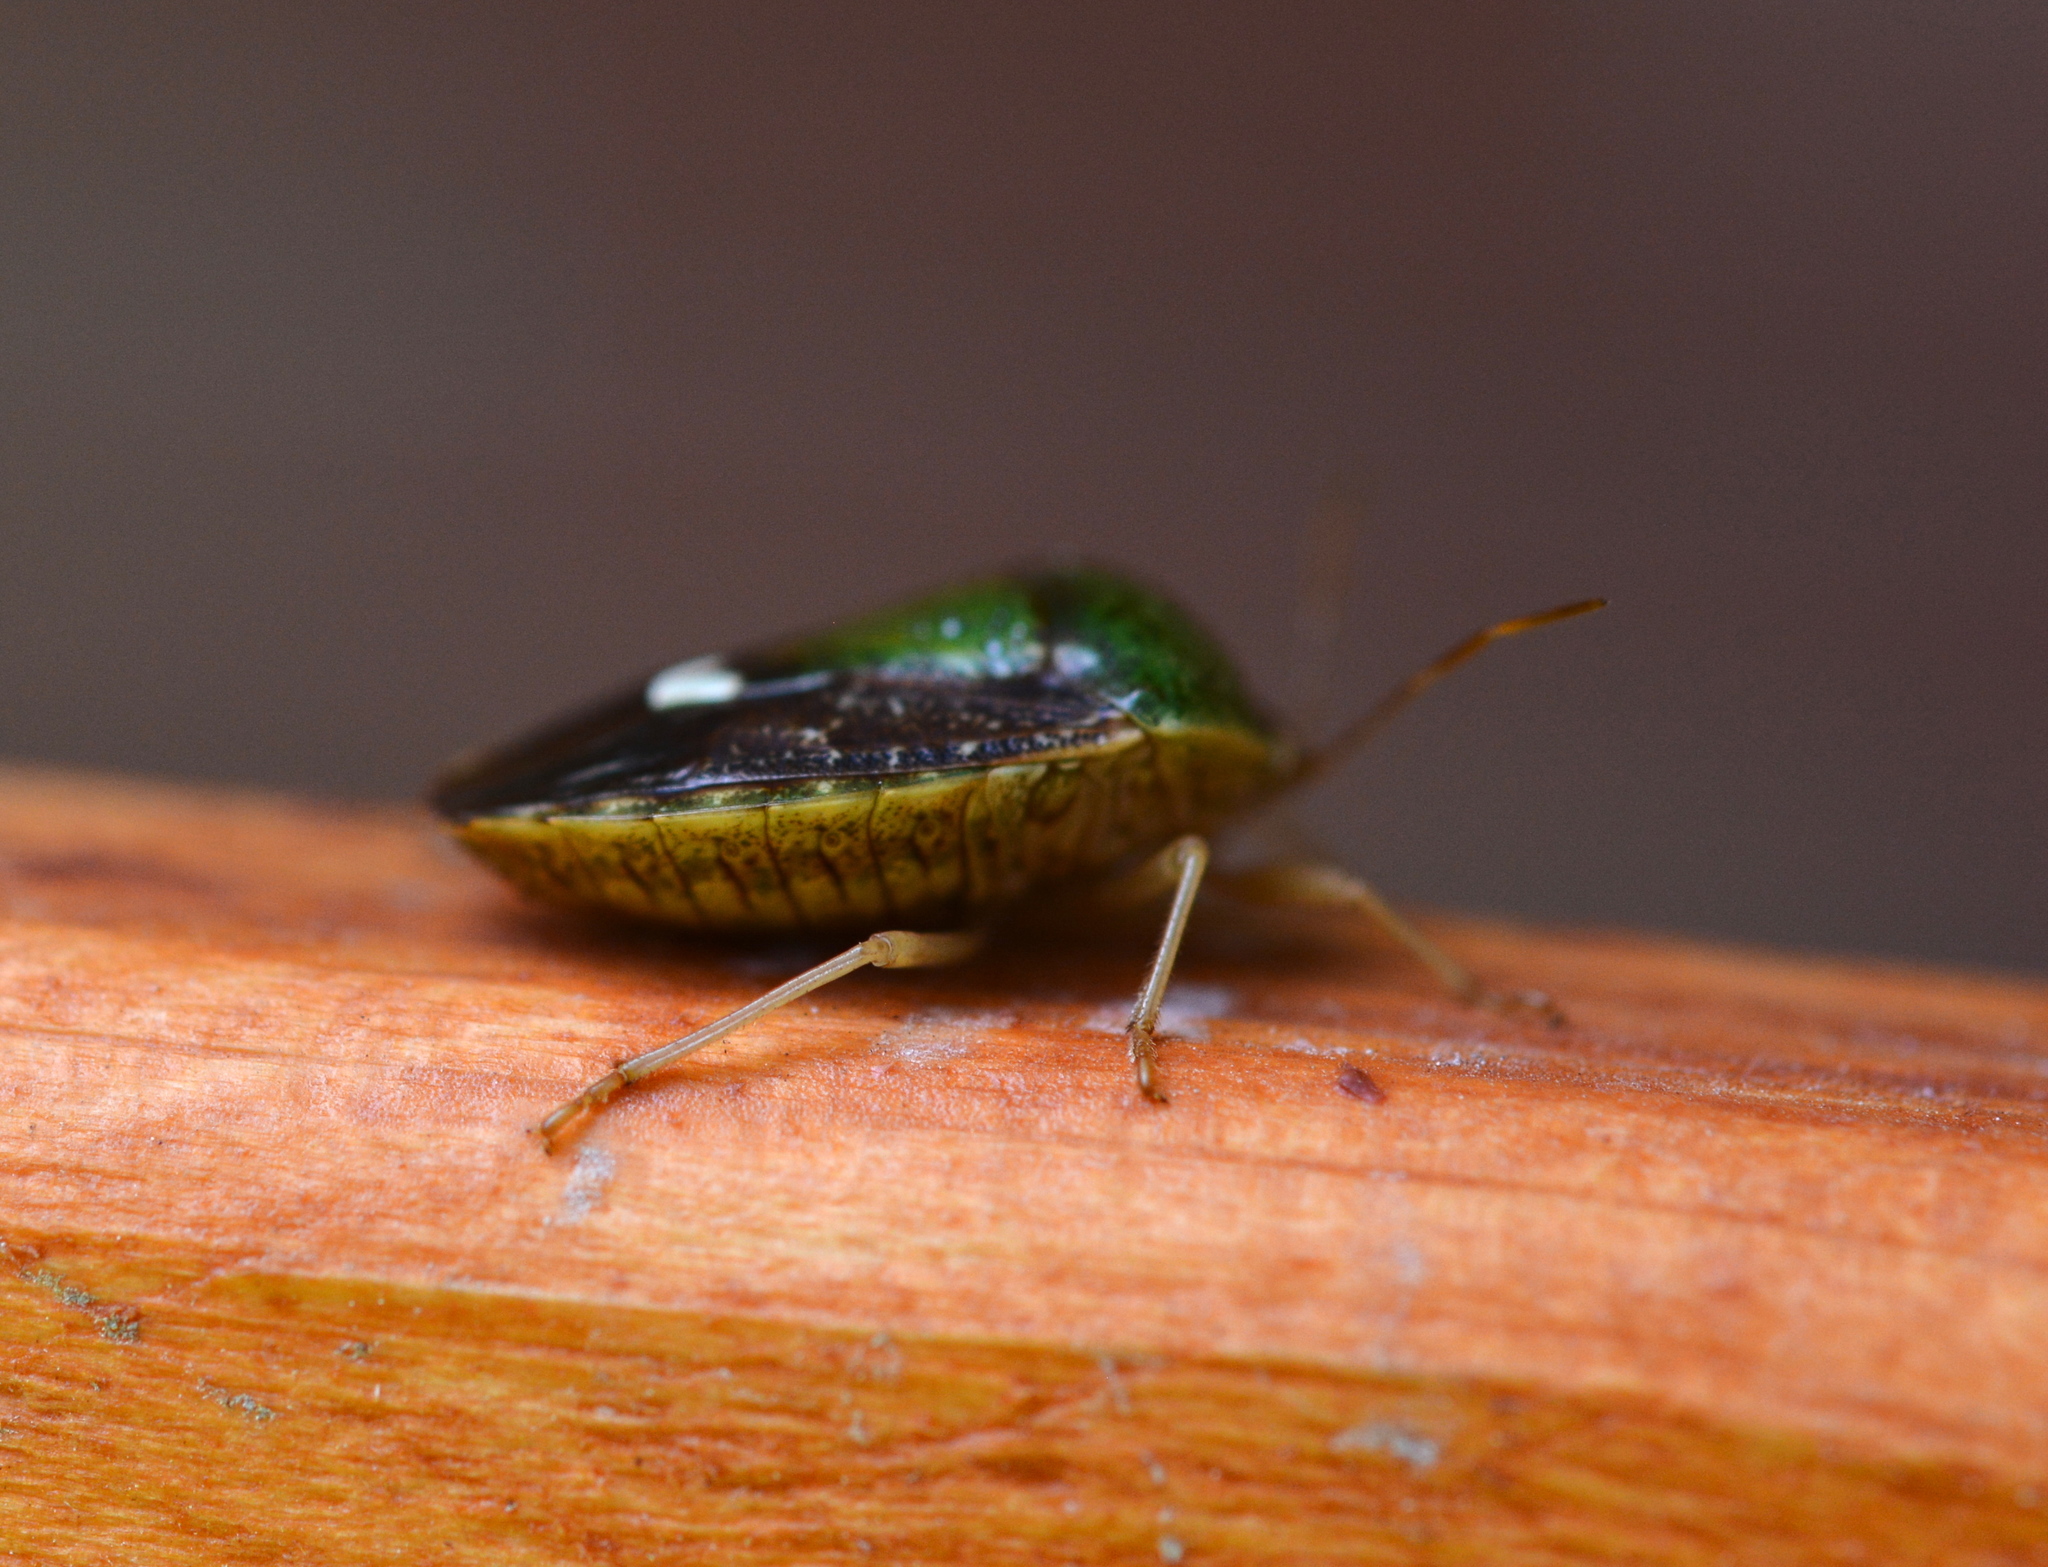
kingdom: Animalia
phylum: Arthropoda
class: Insecta
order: Hemiptera
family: Pentatomidae
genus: Edessa
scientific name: Edessa bifida
